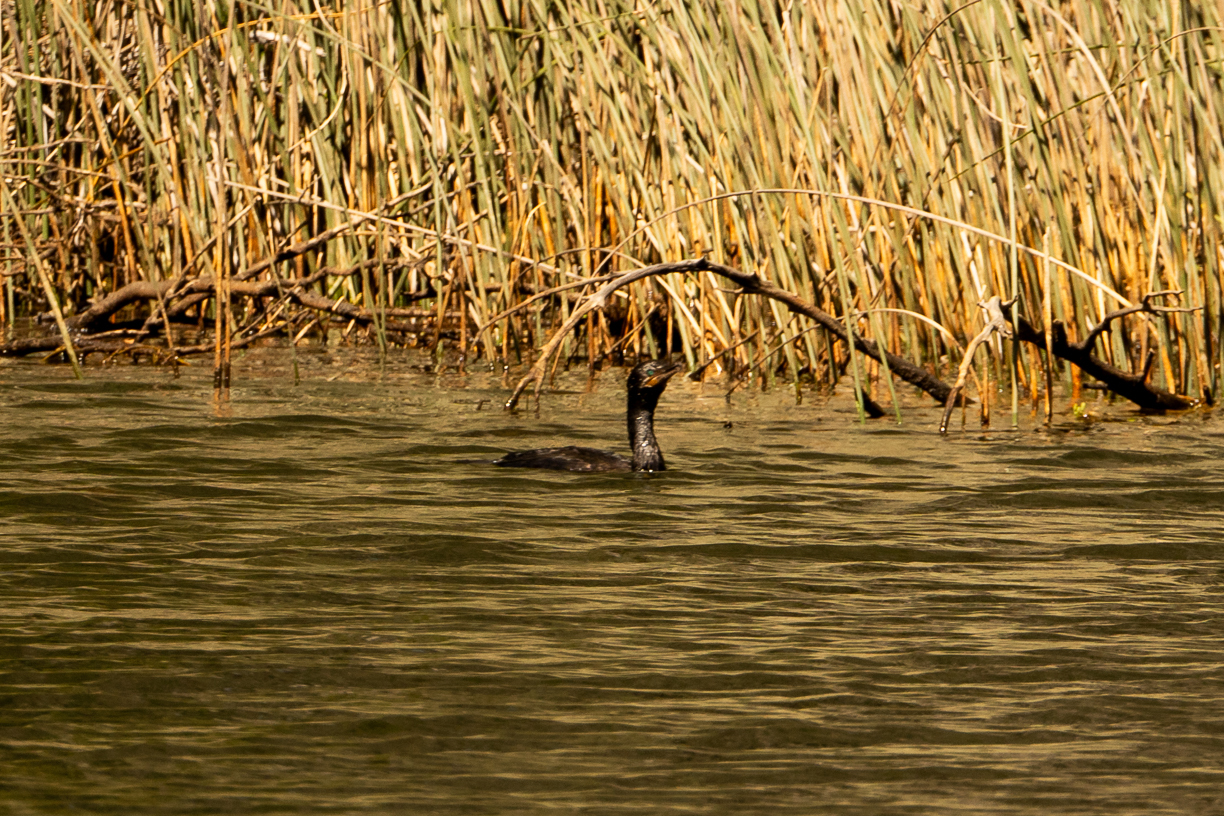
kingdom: Animalia
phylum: Chordata
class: Aves
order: Suliformes
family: Phalacrocoracidae
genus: Phalacrocorax
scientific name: Phalacrocorax brasilianus
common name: Neotropic cormorant
